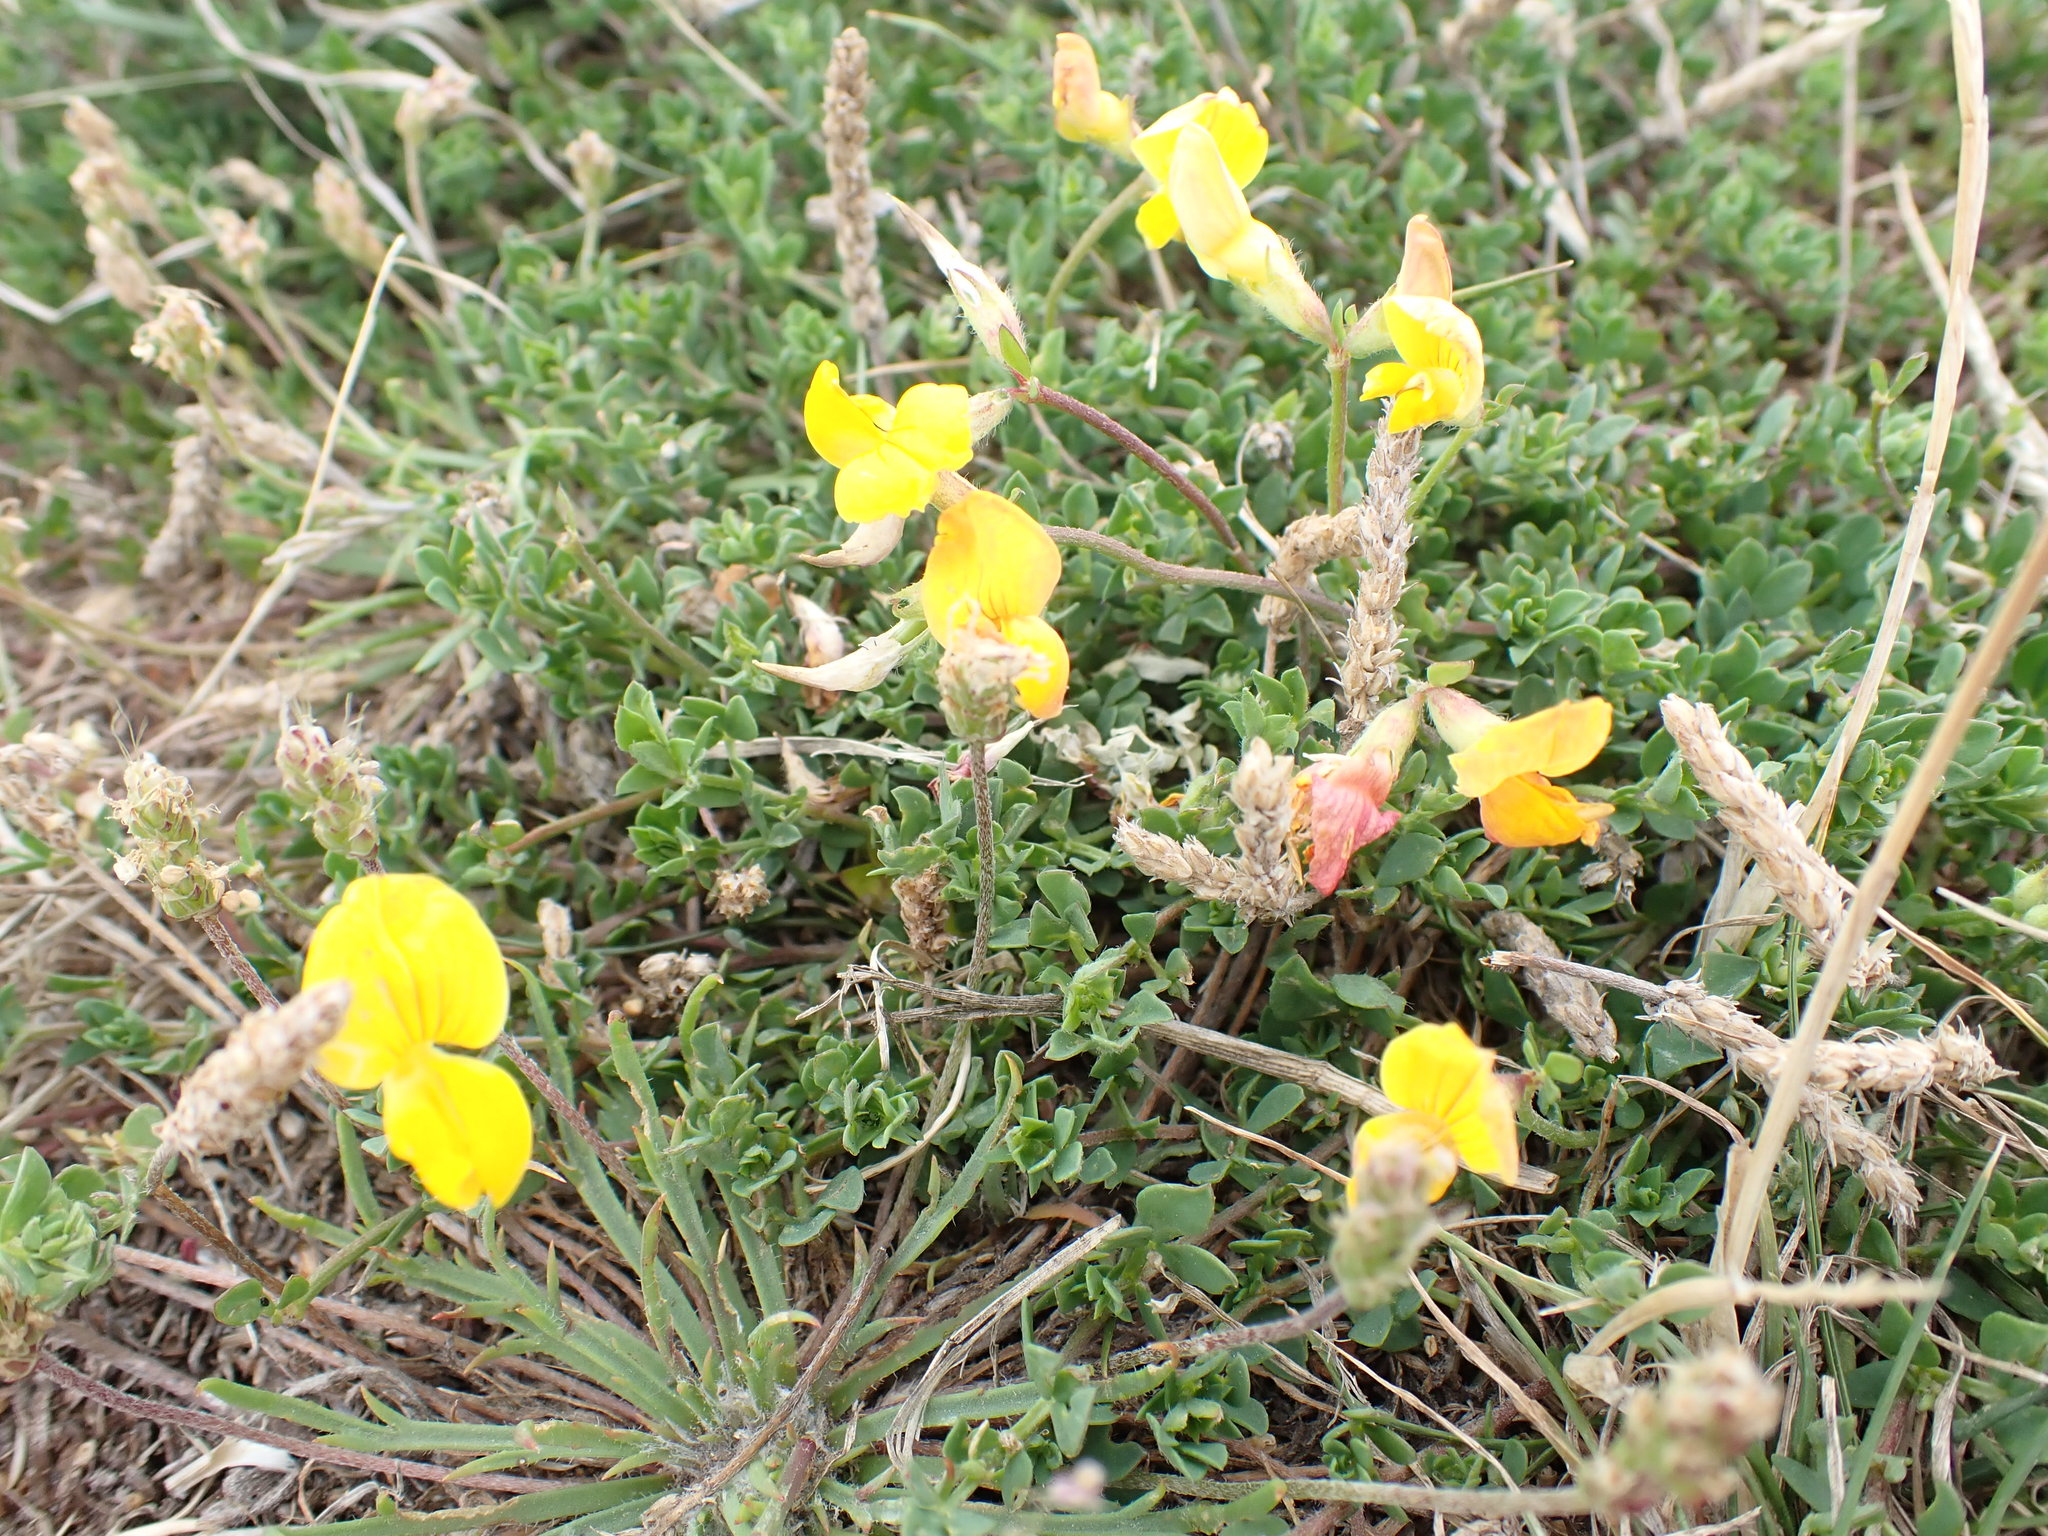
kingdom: Plantae
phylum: Tracheophyta
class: Magnoliopsida
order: Fabales
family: Fabaceae
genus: Lotus
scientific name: Lotus corniculatus
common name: Common bird's-foot-trefoil
